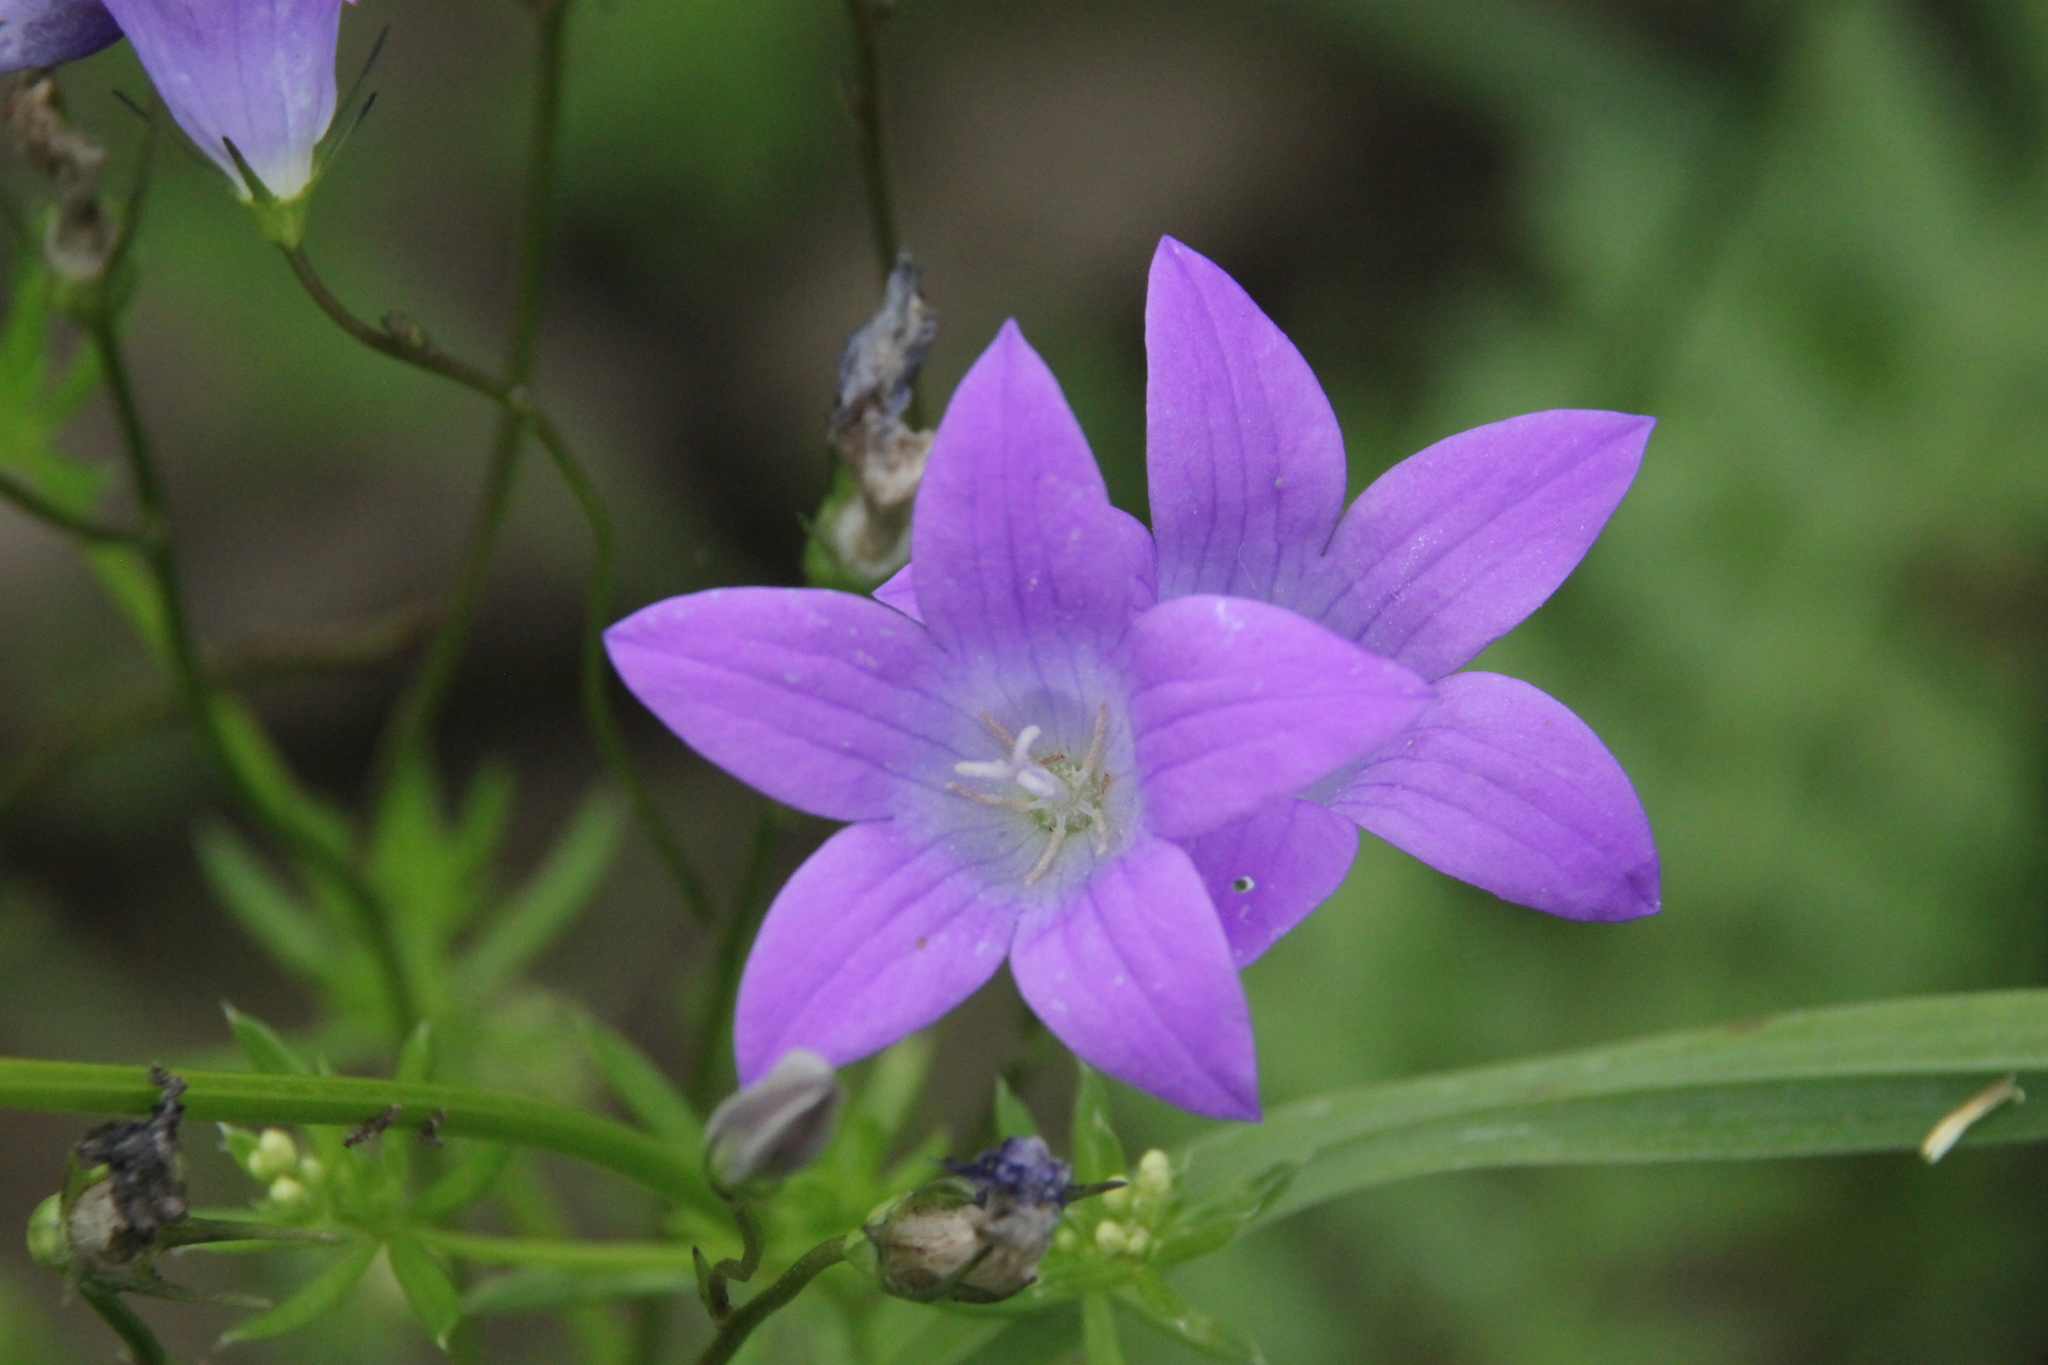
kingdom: Plantae
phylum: Tracheophyta
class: Magnoliopsida
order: Asterales
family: Campanulaceae
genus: Campanula
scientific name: Campanula patula
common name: Spreading bellflower
